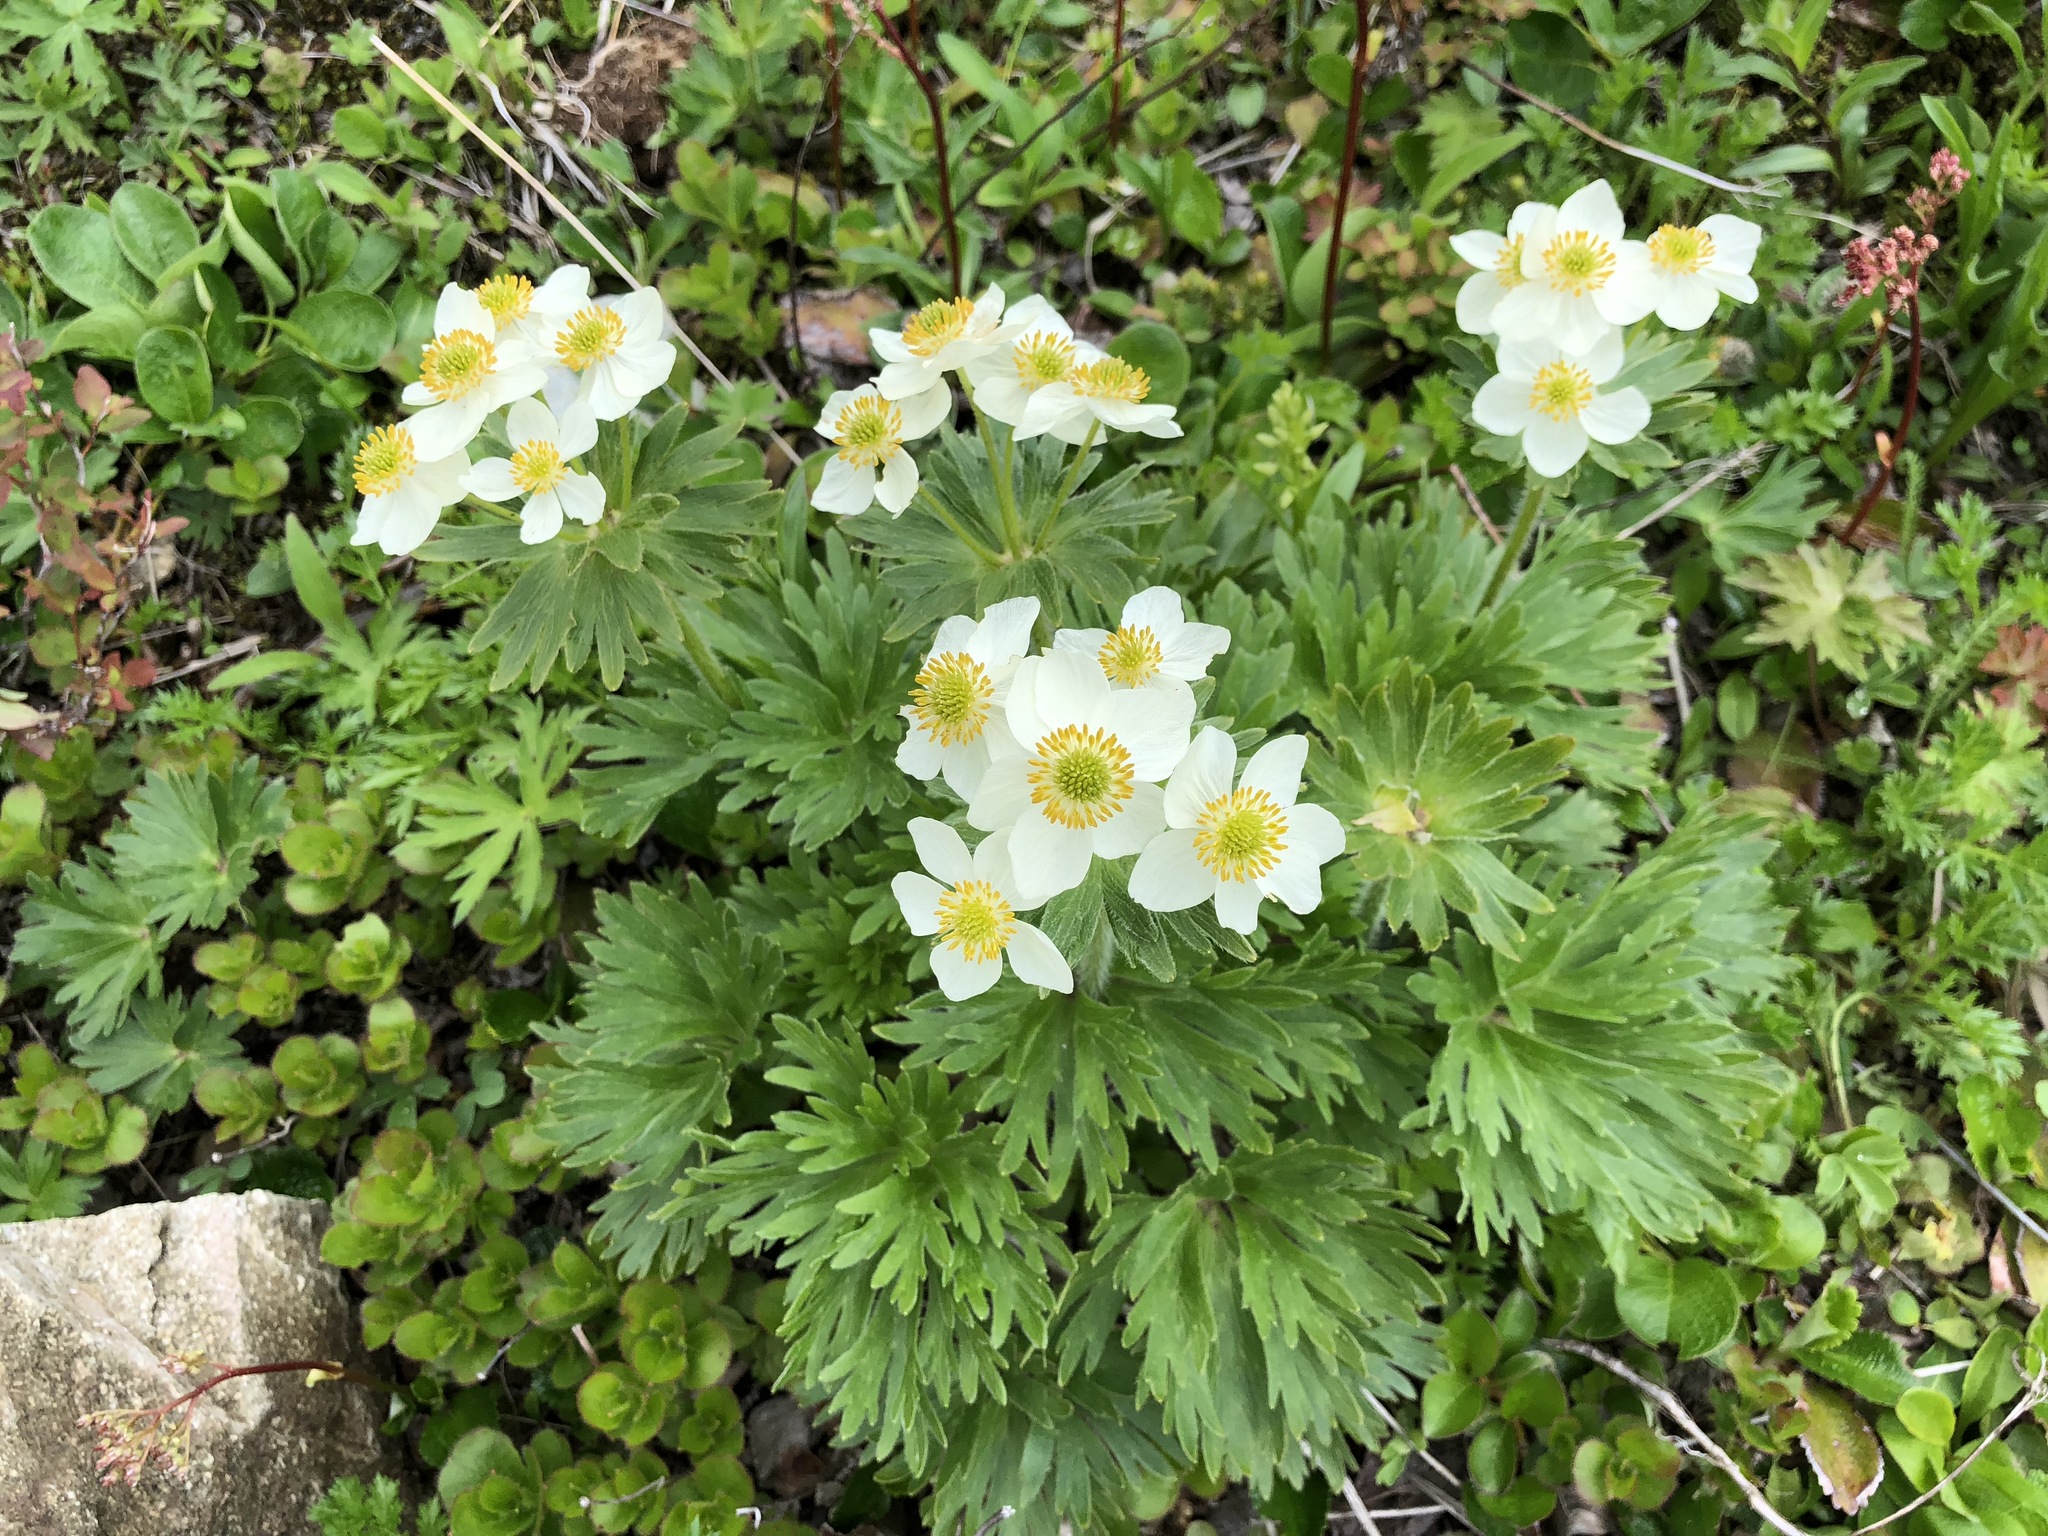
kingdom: Plantae
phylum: Tracheophyta
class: Magnoliopsida
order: Ranunculales
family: Ranunculaceae
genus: Anemonastrum
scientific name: Anemonastrum narcissiflorum
